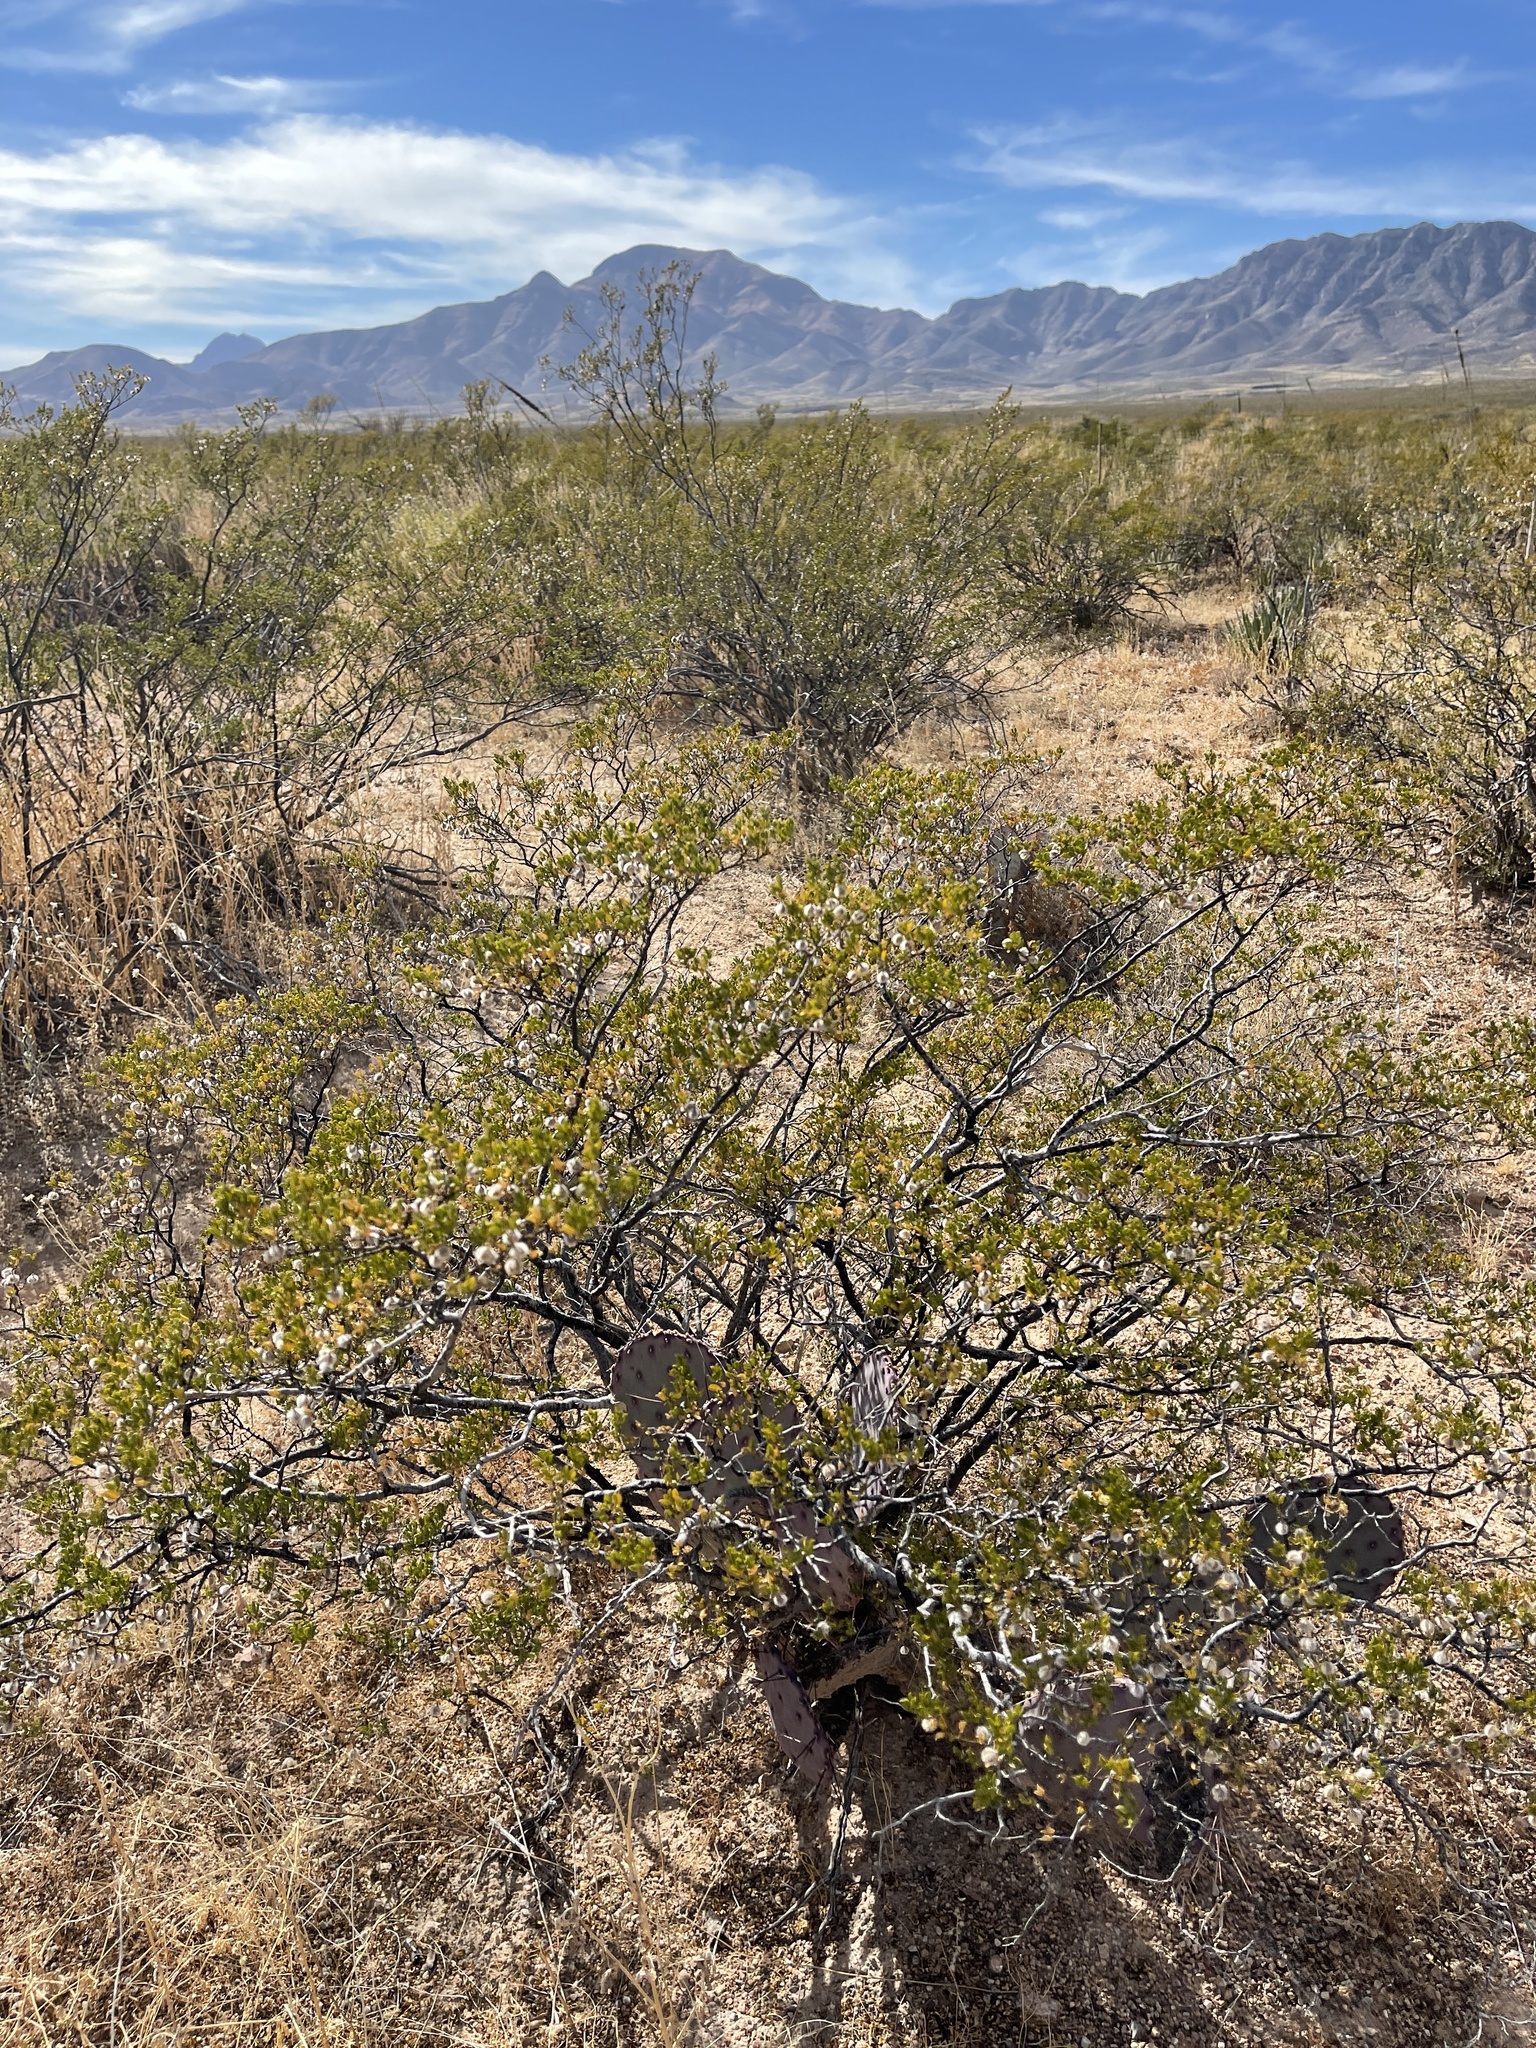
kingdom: Plantae
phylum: Tracheophyta
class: Magnoliopsida
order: Zygophyllales
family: Zygophyllaceae
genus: Larrea
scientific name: Larrea tridentata
